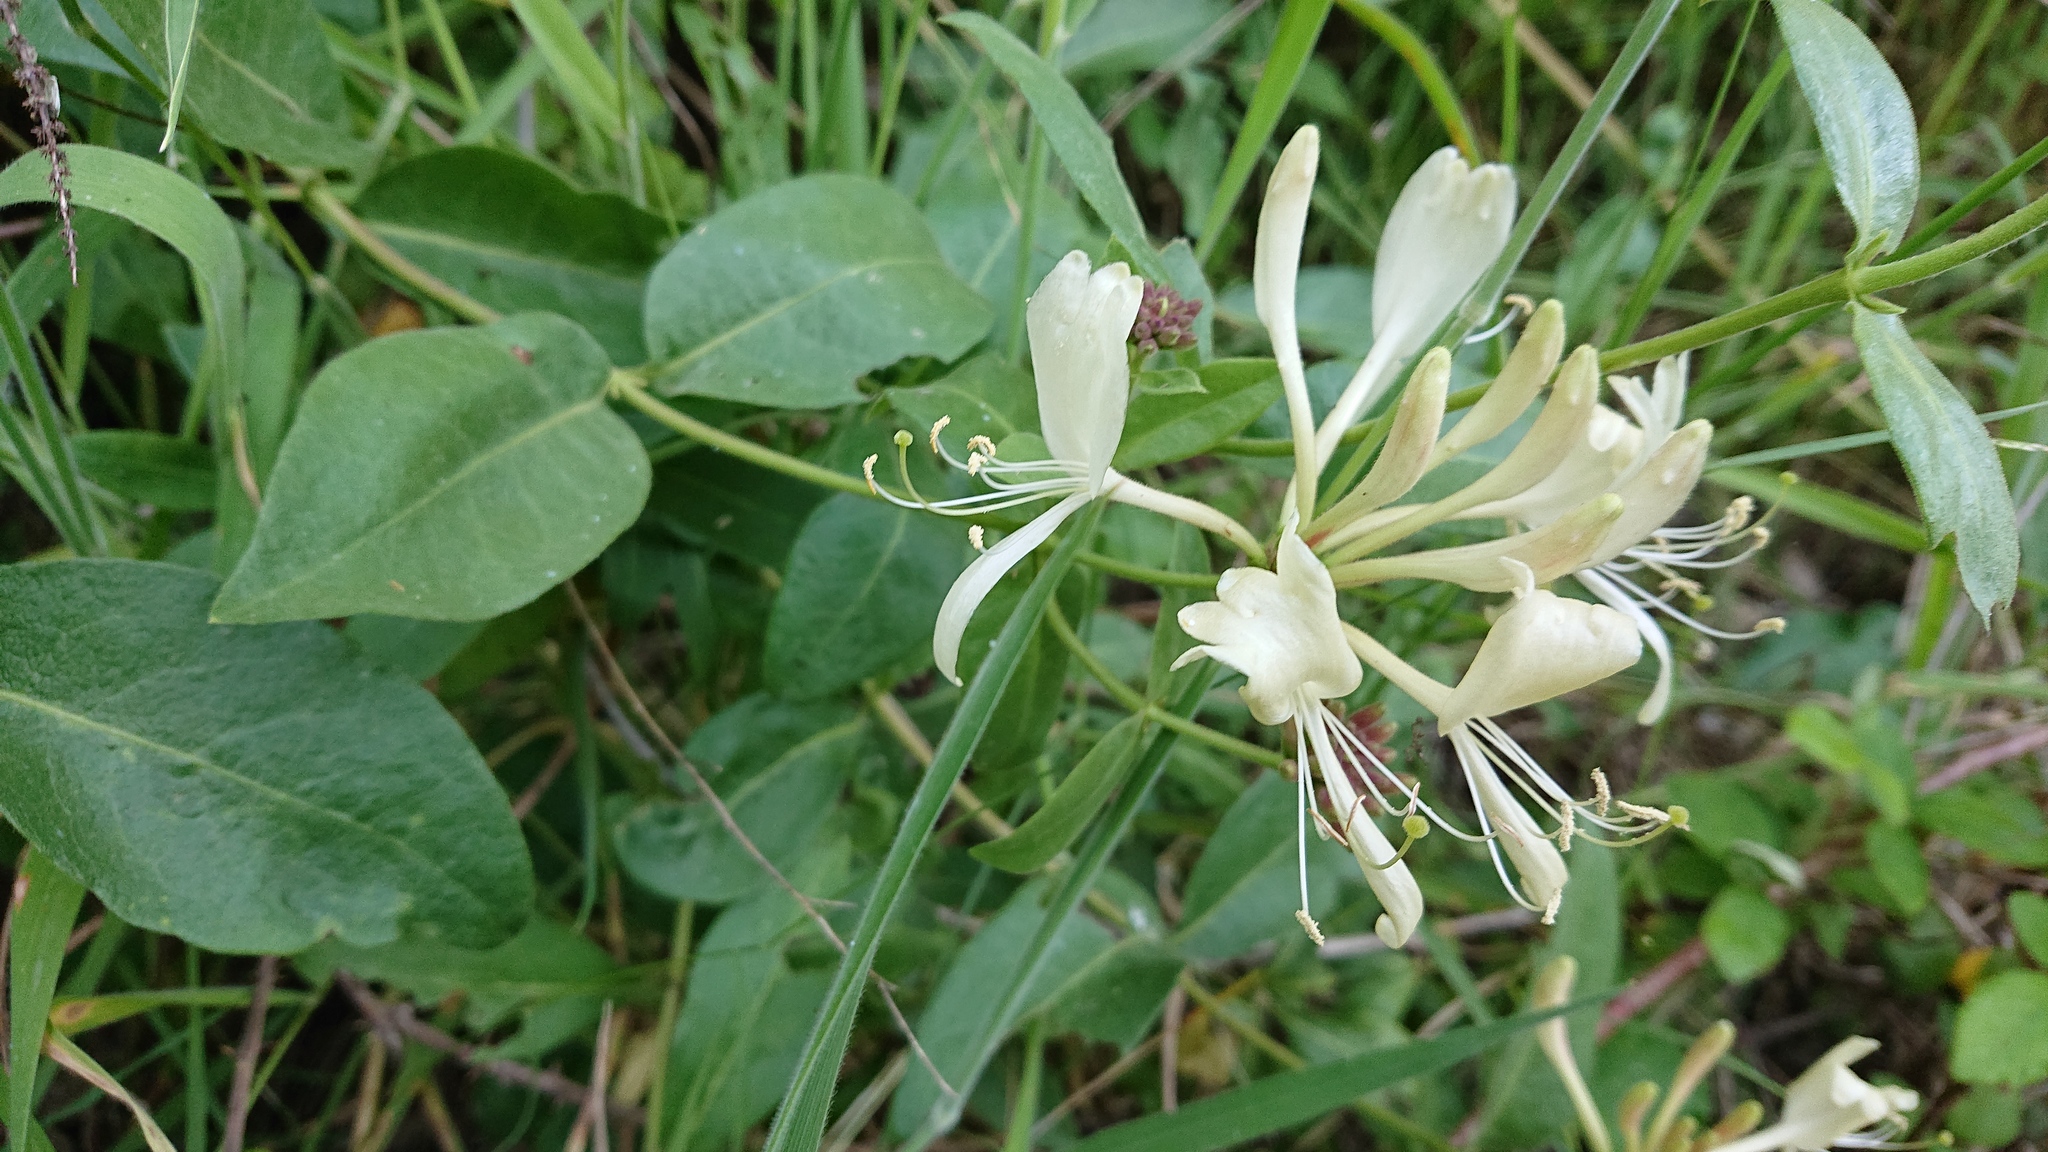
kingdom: Plantae
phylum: Tracheophyta
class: Magnoliopsida
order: Dipsacales
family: Caprifoliaceae
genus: Lonicera
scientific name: Lonicera periclymenum
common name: European honeysuckle
